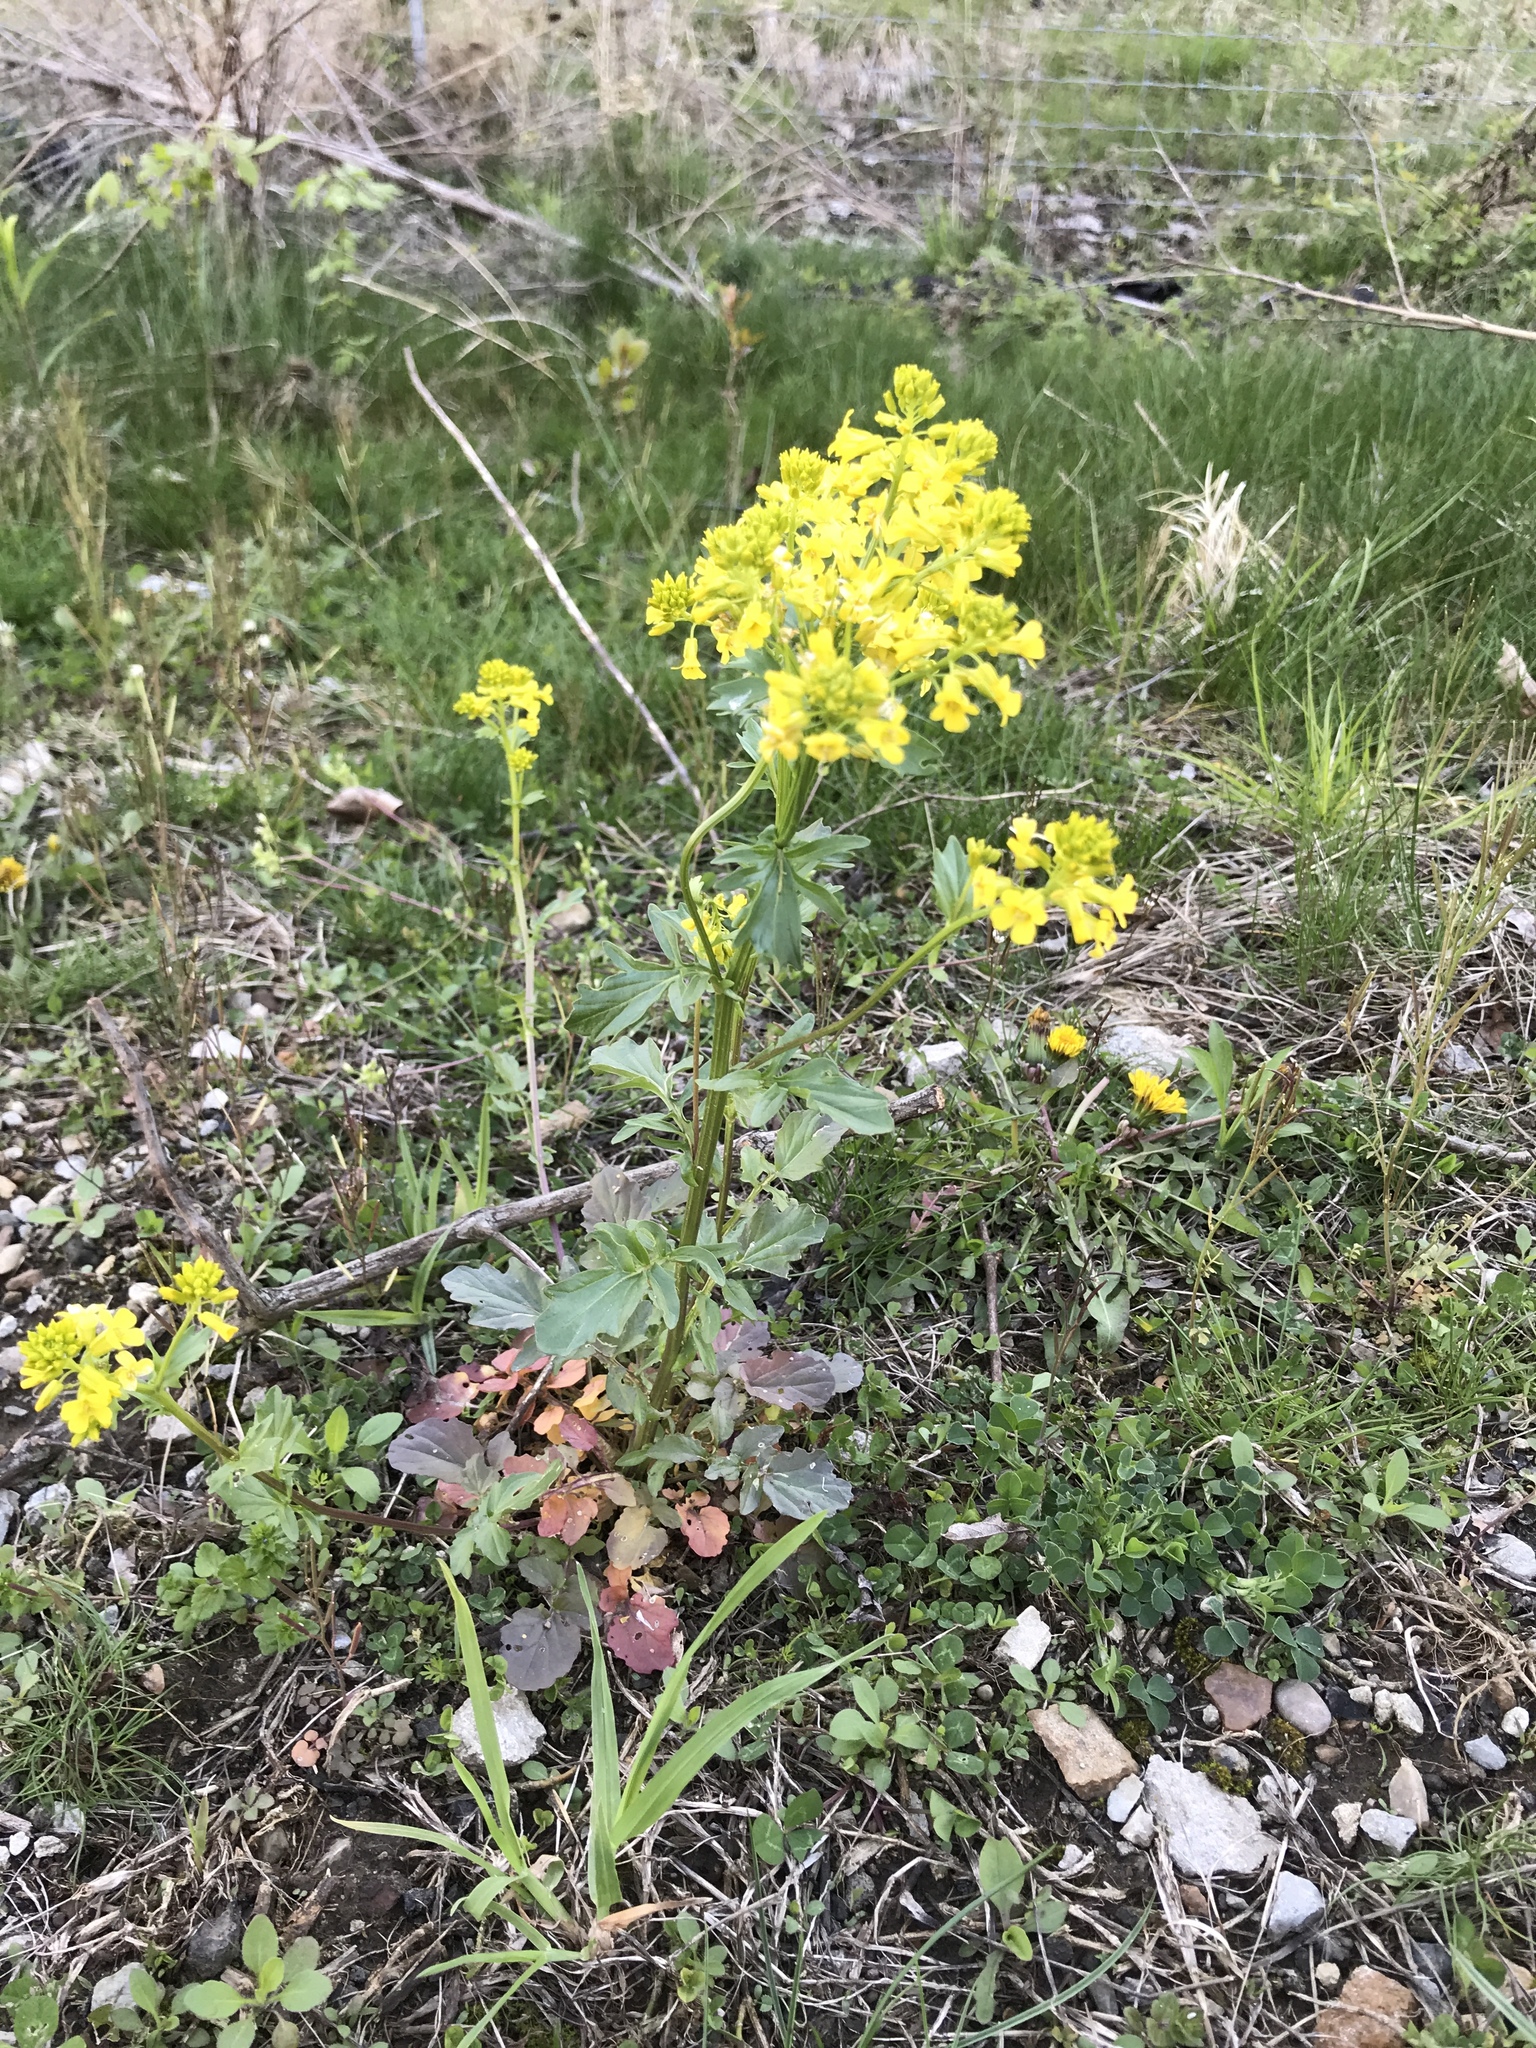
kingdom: Plantae
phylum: Tracheophyta
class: Magnoliopsida
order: Brassicales
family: Brassicaceae
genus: Barbarea
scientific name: Barbarea vulgaris
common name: Cressy-greens
